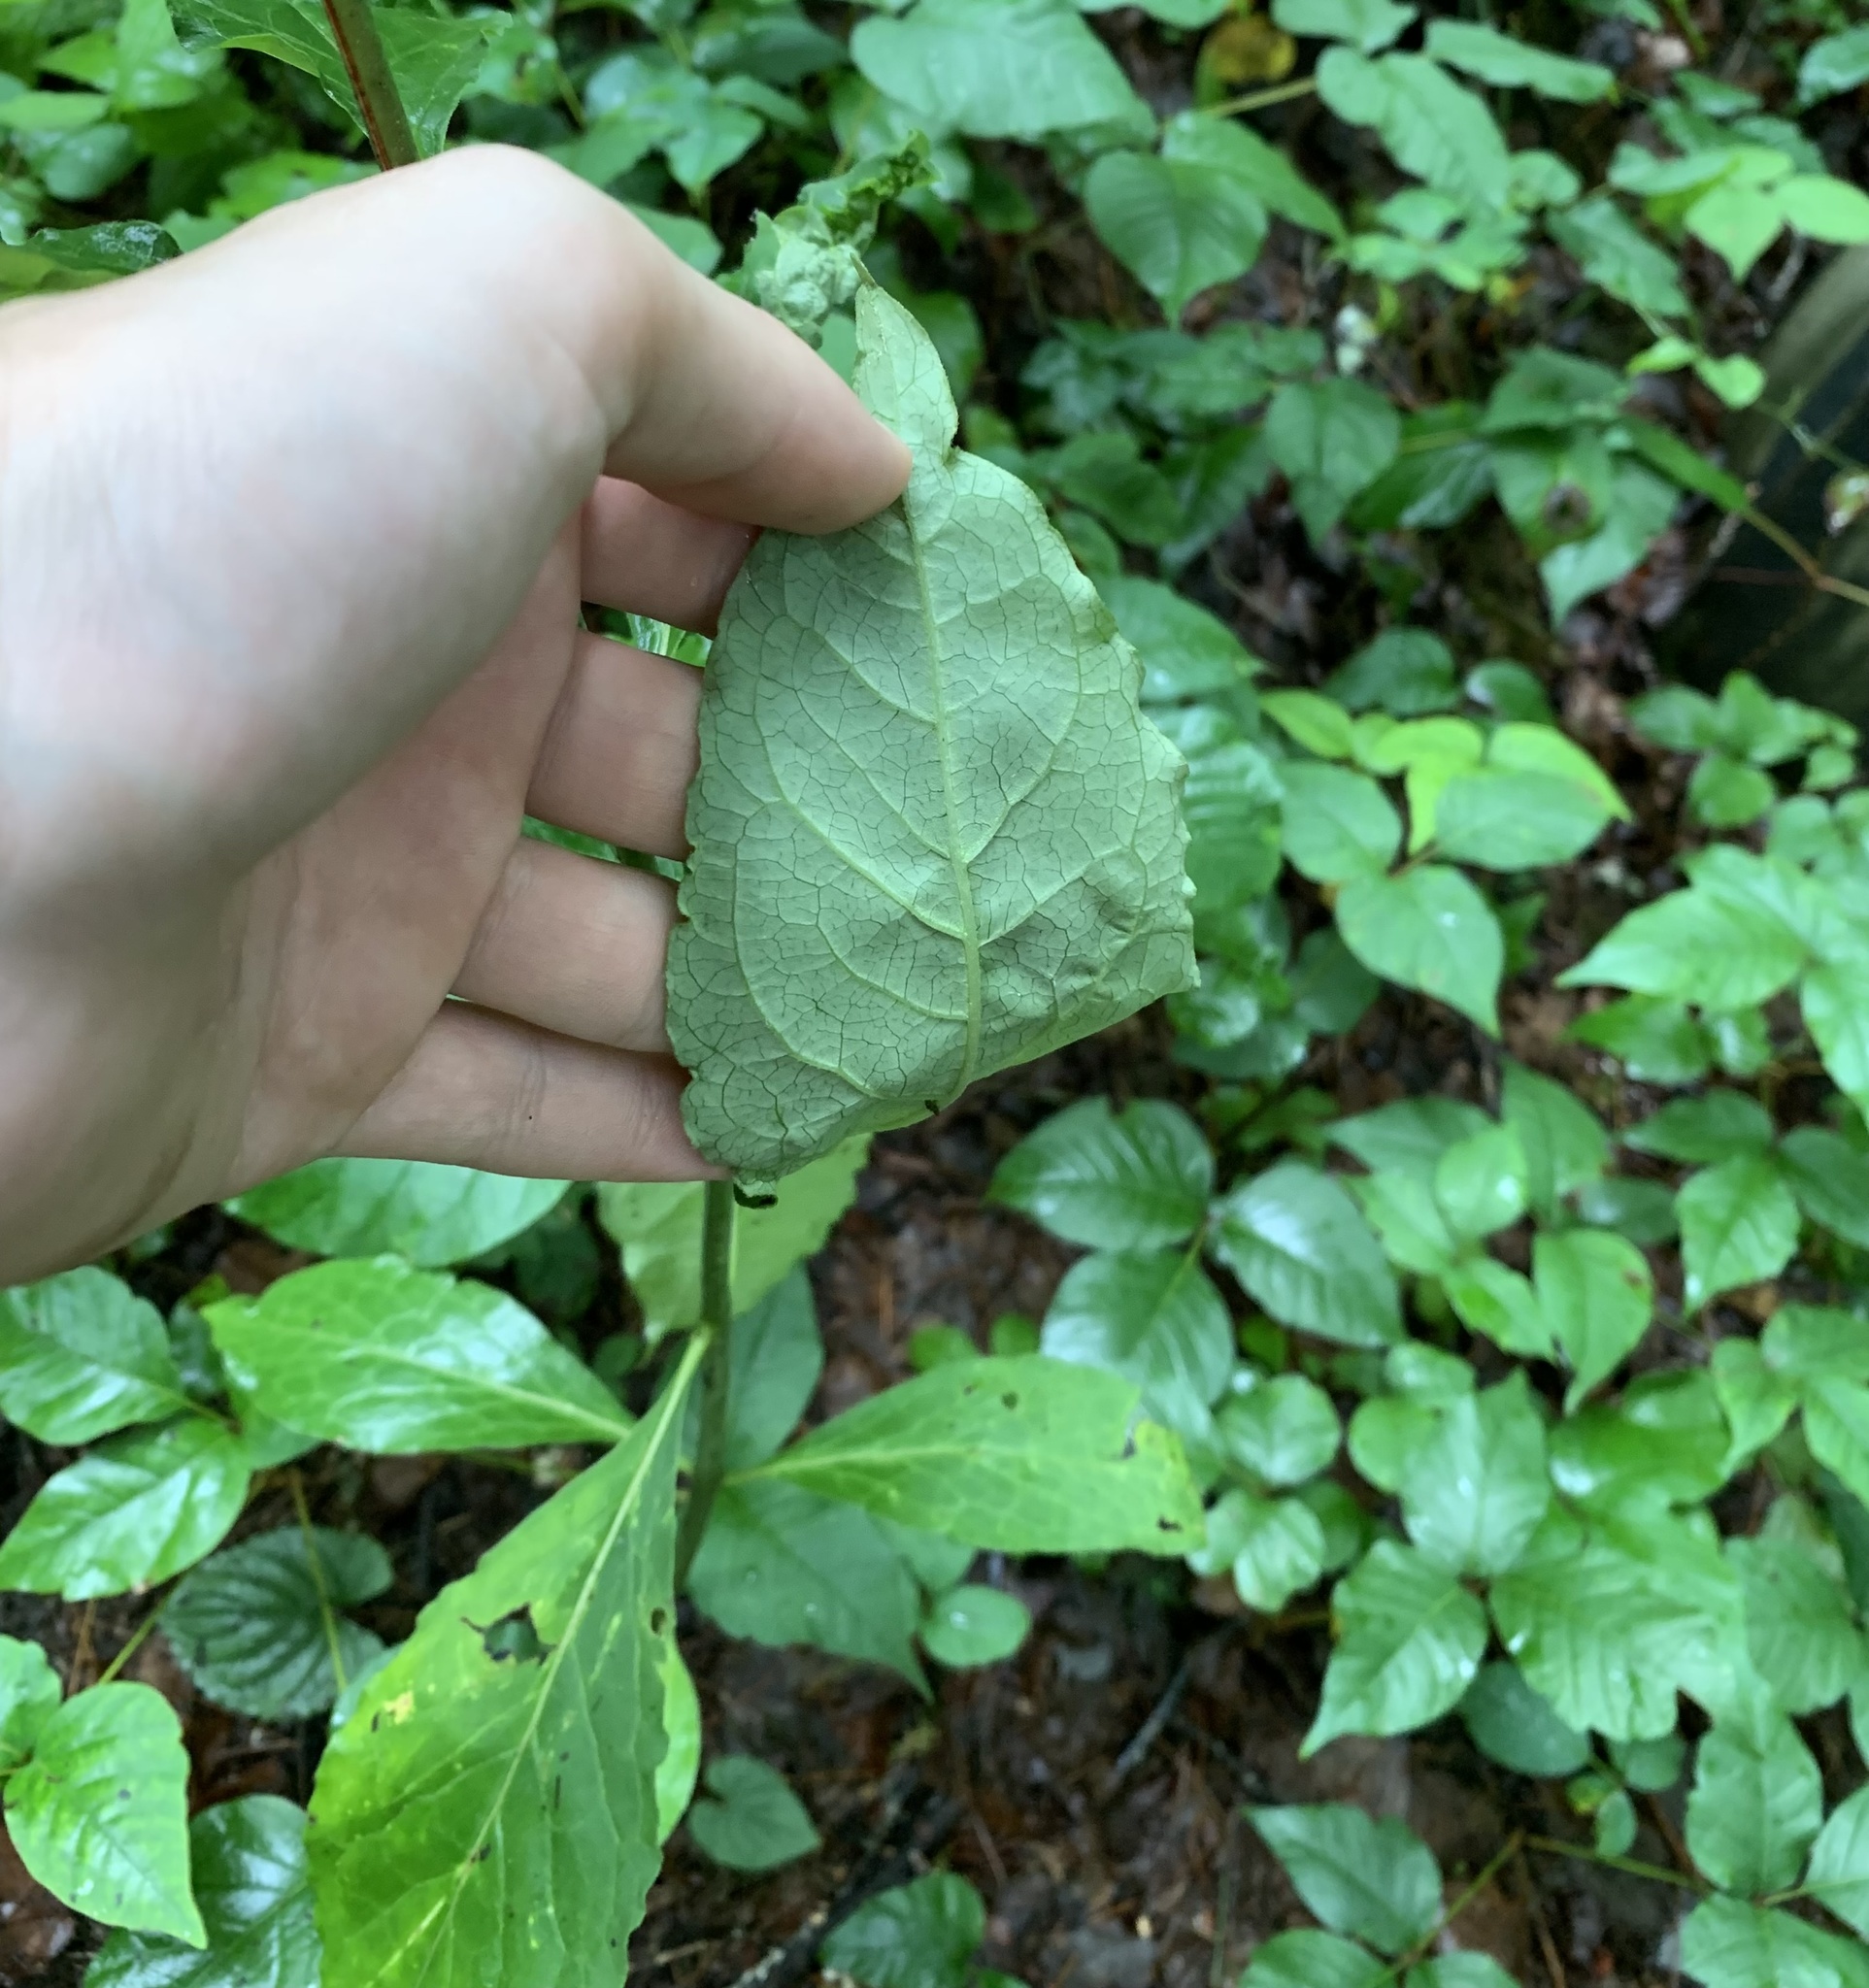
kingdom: Plantae
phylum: Tracheophyta
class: Magnoliopsida
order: Gentianales
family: Apocynaceae
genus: Asclepias
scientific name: Asclepias exaltata
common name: Poke milkweed
